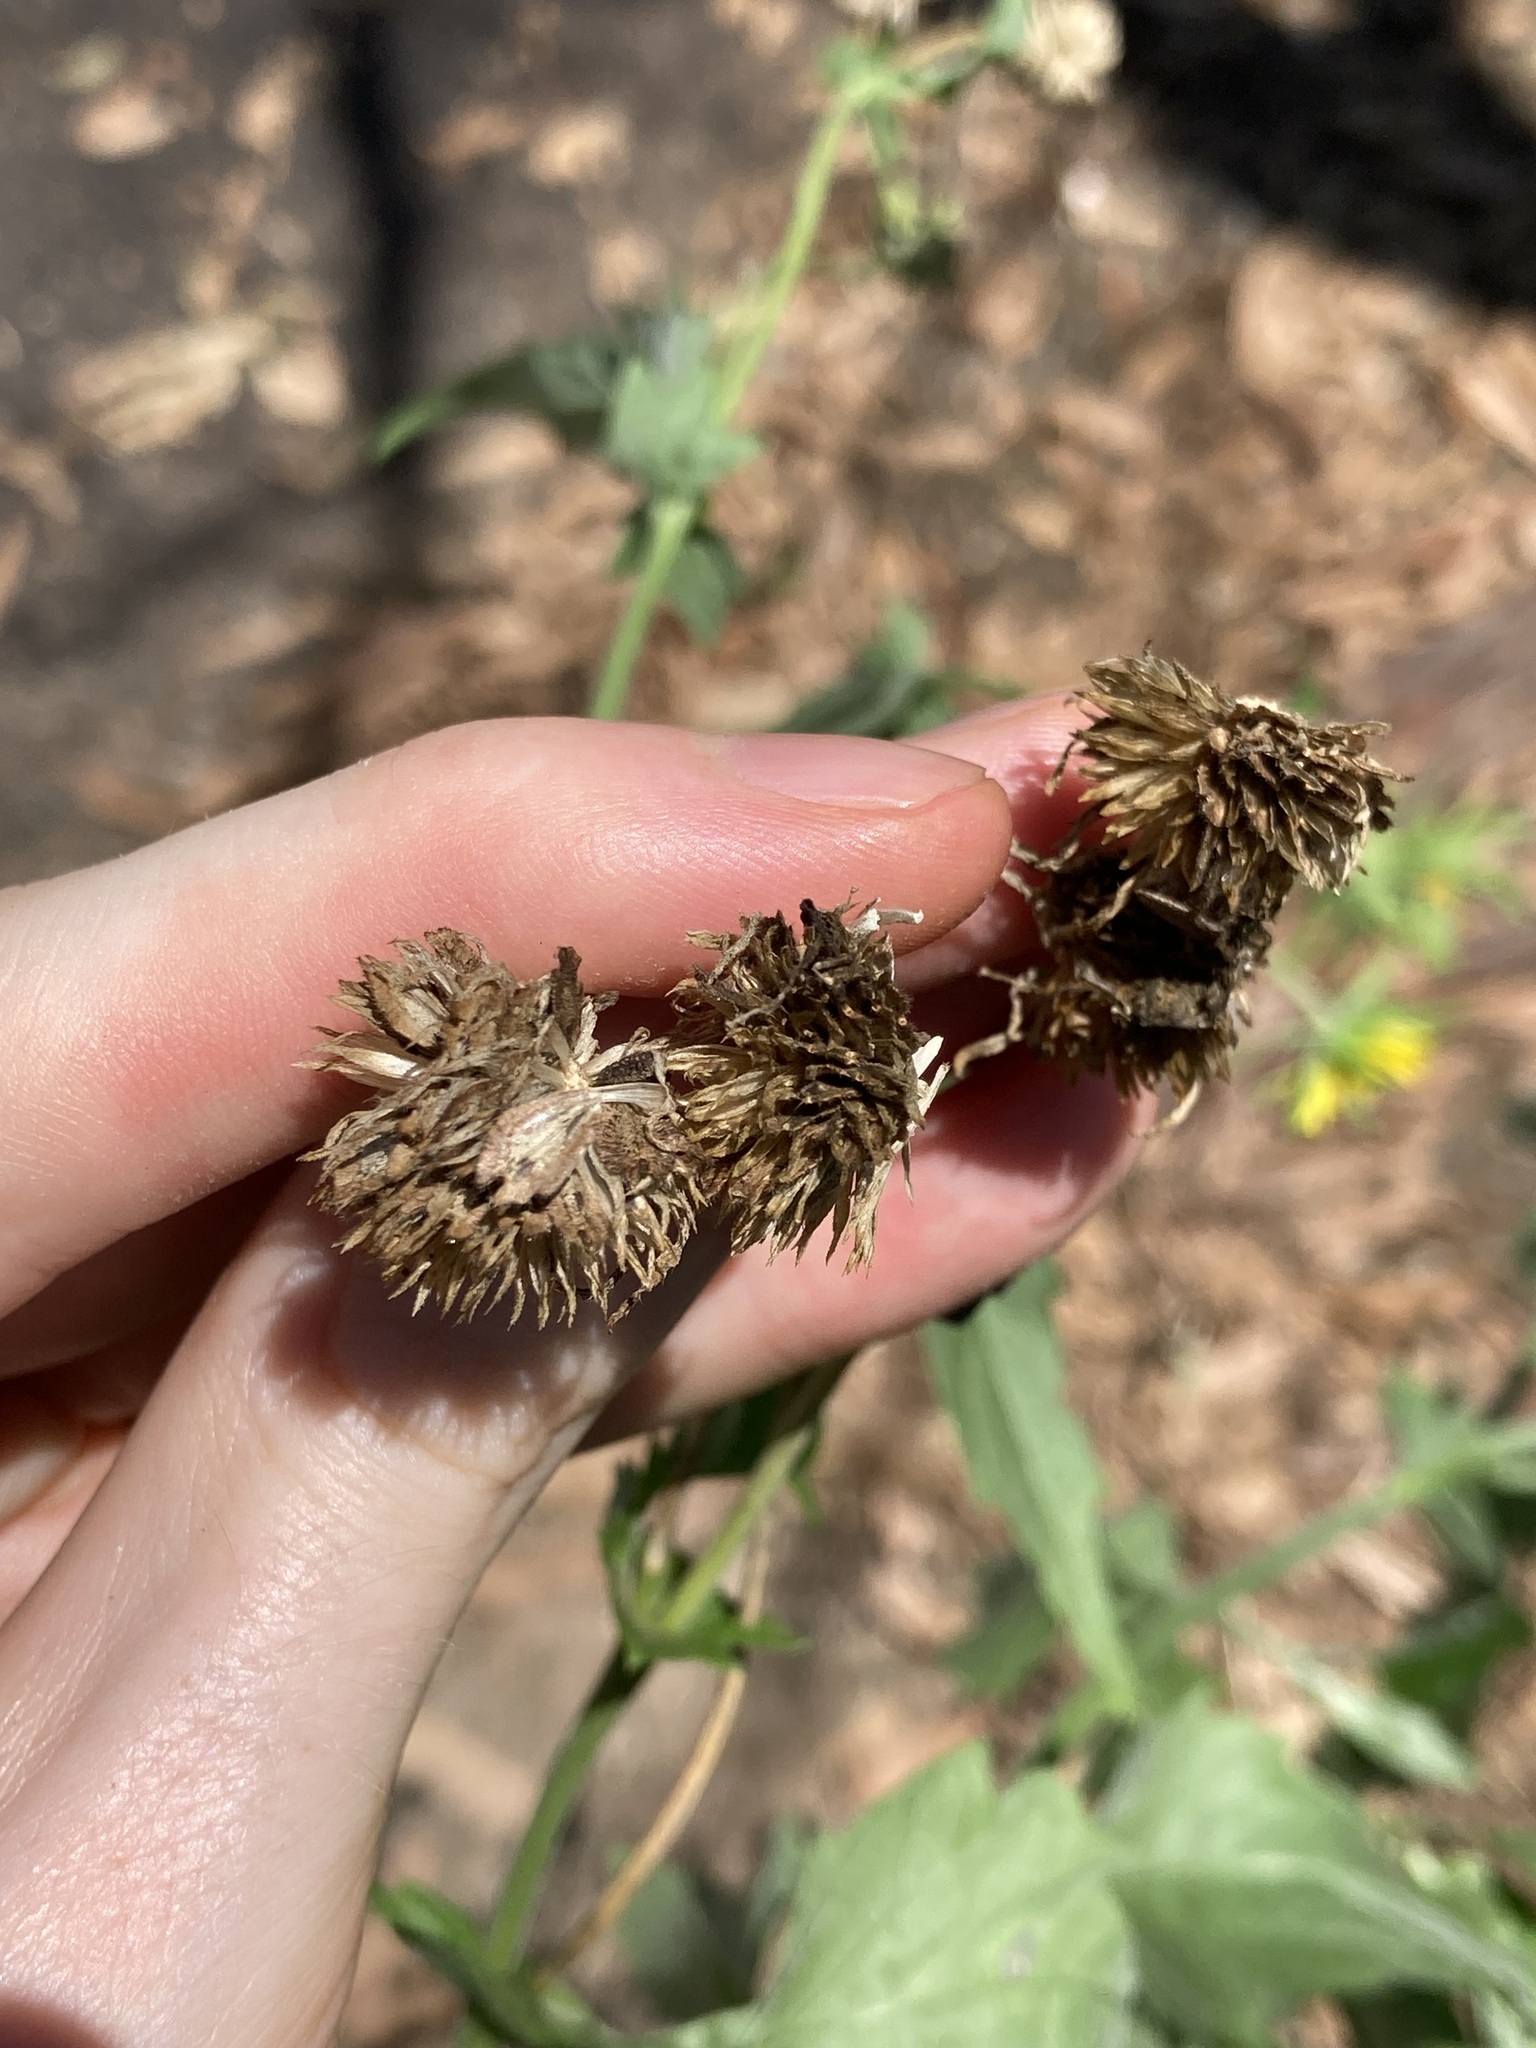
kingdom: Plantae
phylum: Tracheophyta
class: Magnoliopsida
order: Asterales
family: Asteraceae
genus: Verbesina
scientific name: Verbesina encelioides
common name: Golden crownbeard
